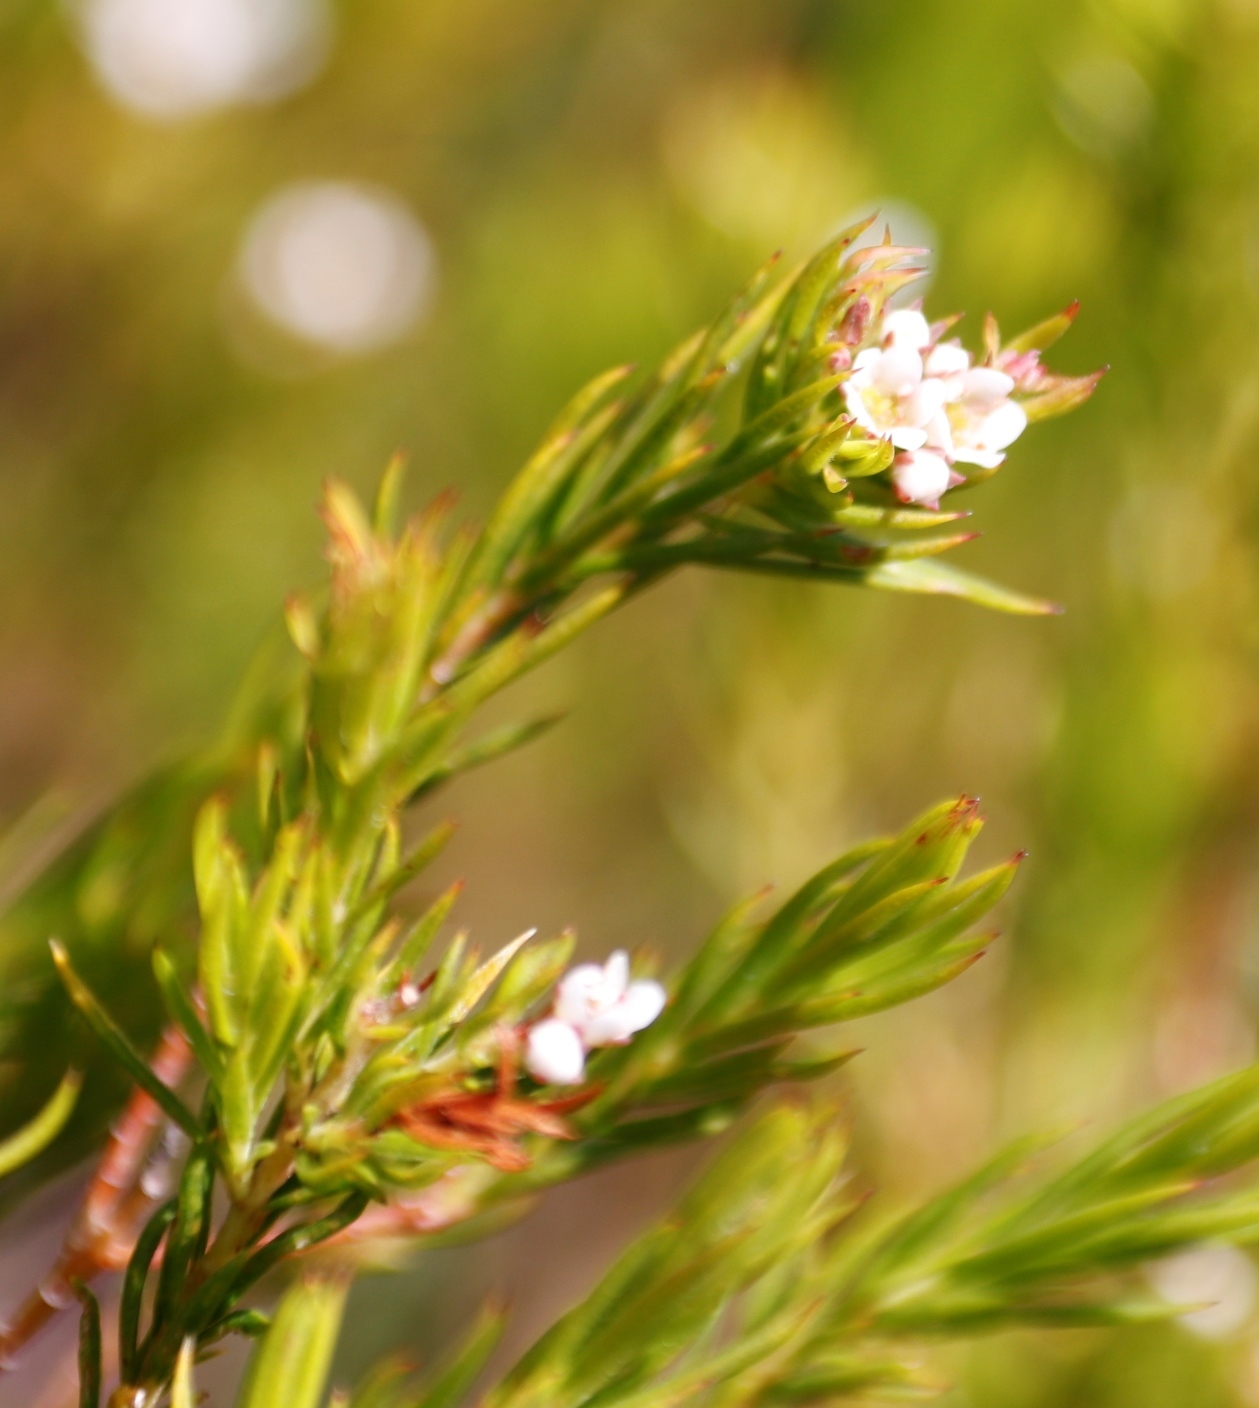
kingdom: Plantae
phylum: Tracheophyta
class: Magnoliopsida
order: Sapindales
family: Rutaceae
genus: Diosma
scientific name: Diosma hirsuta
